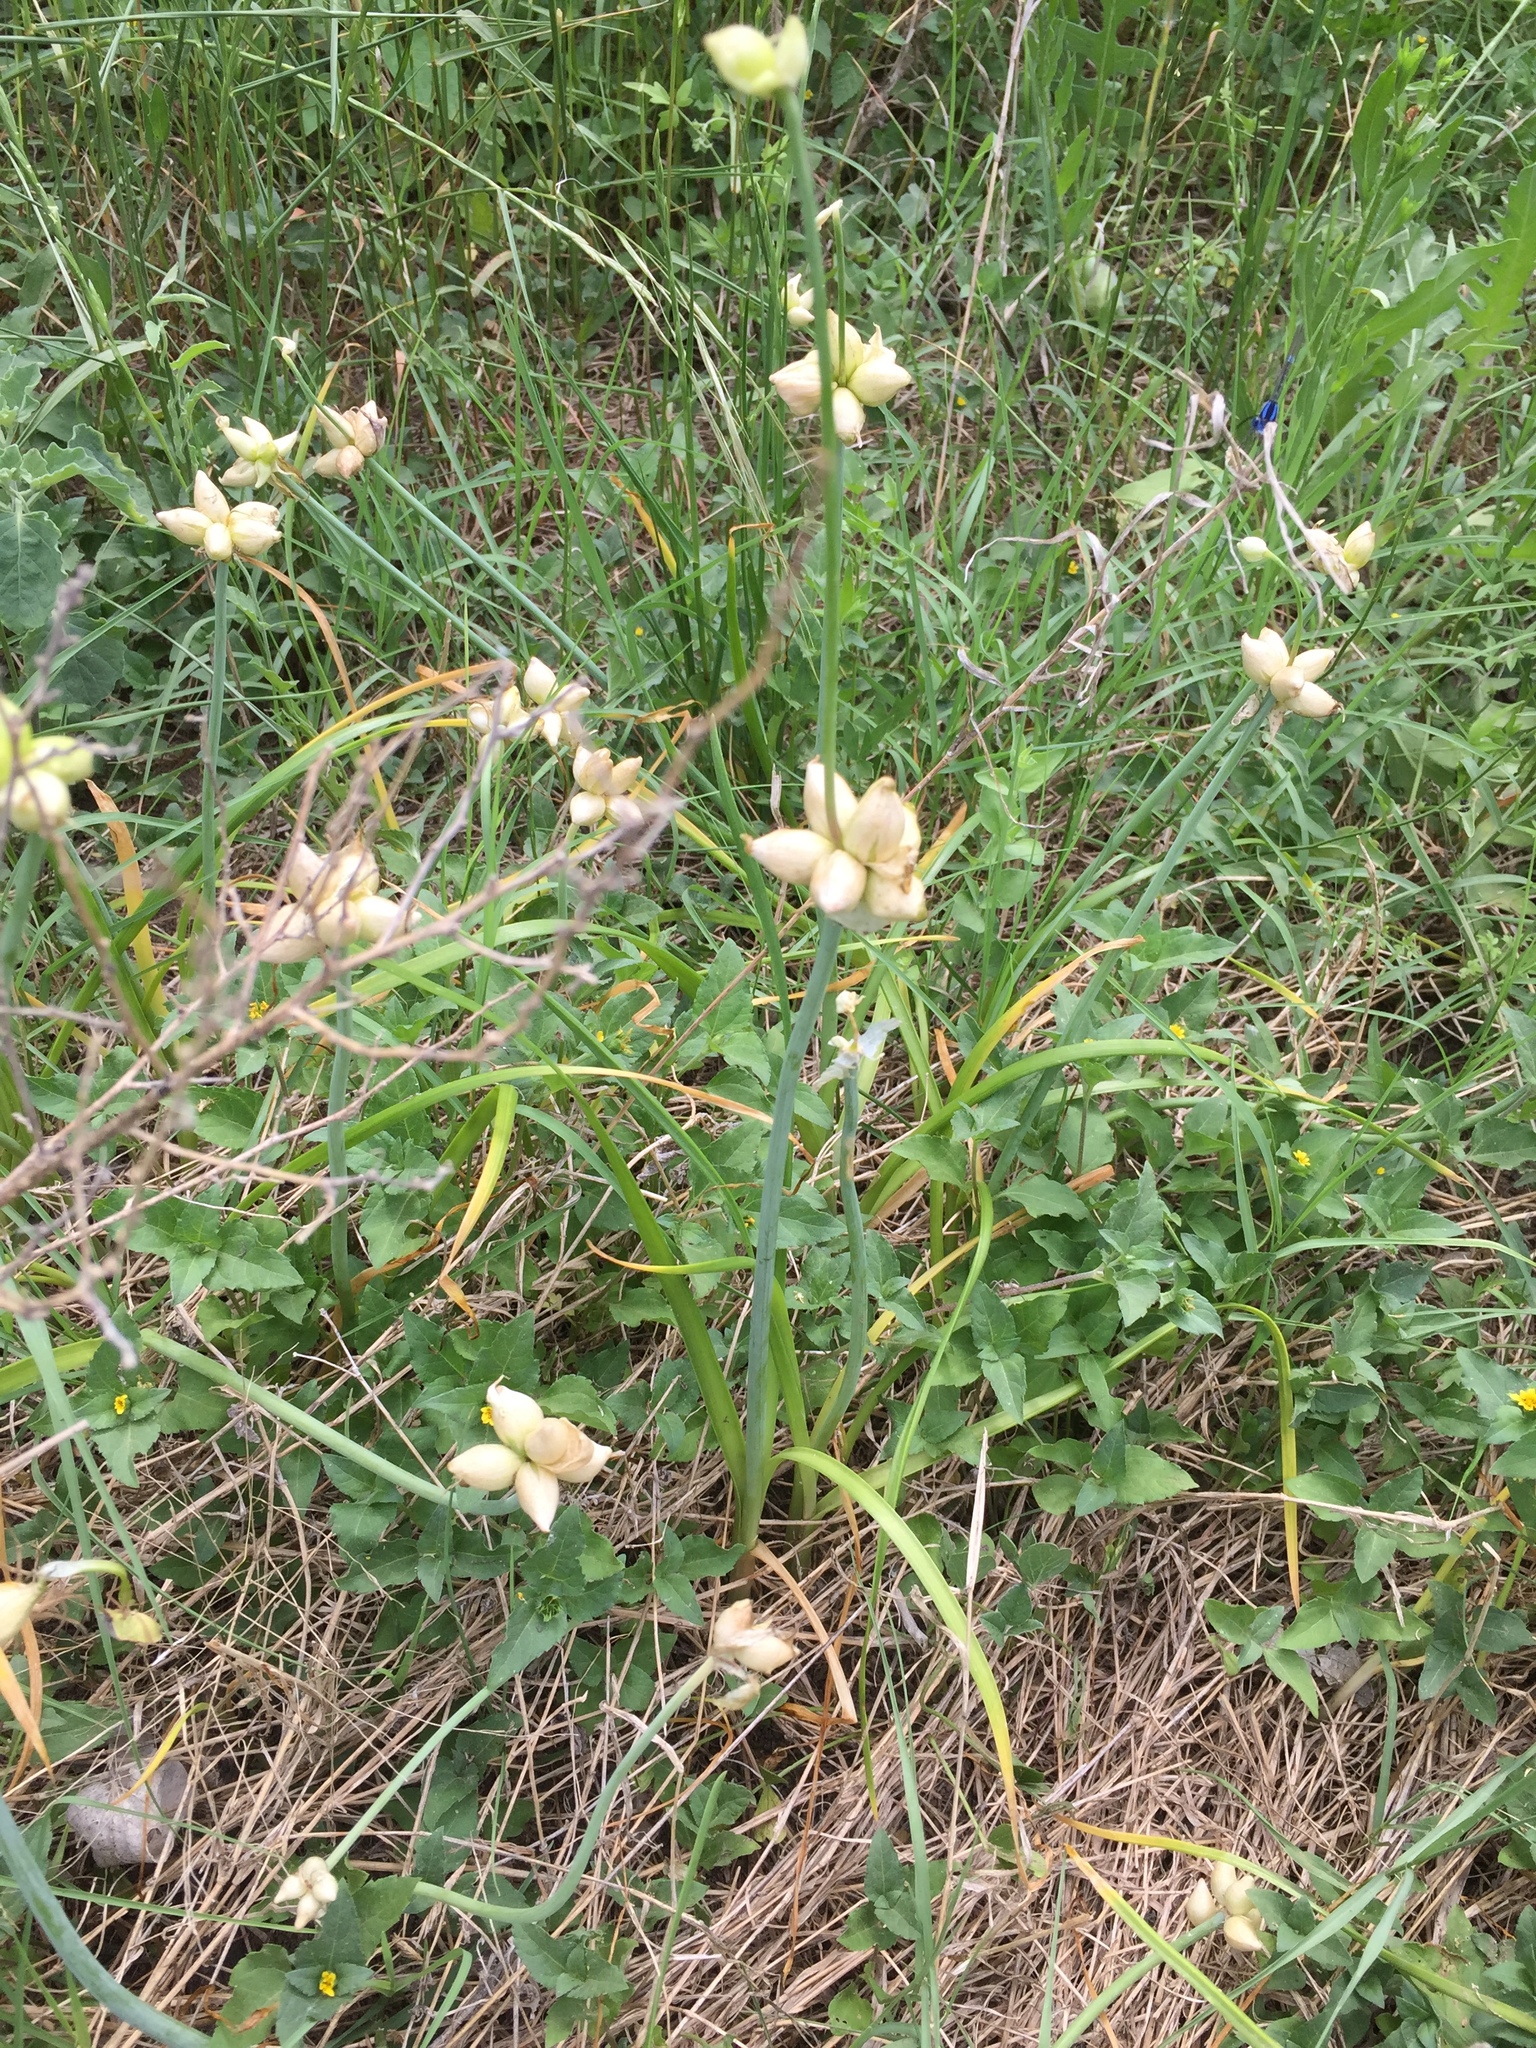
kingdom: Plantae
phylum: Tracheophyta
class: Liliopsida
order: Asparagales
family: Amaryllidaceae
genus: Allium
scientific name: Allium canadense
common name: Meadow garlic
